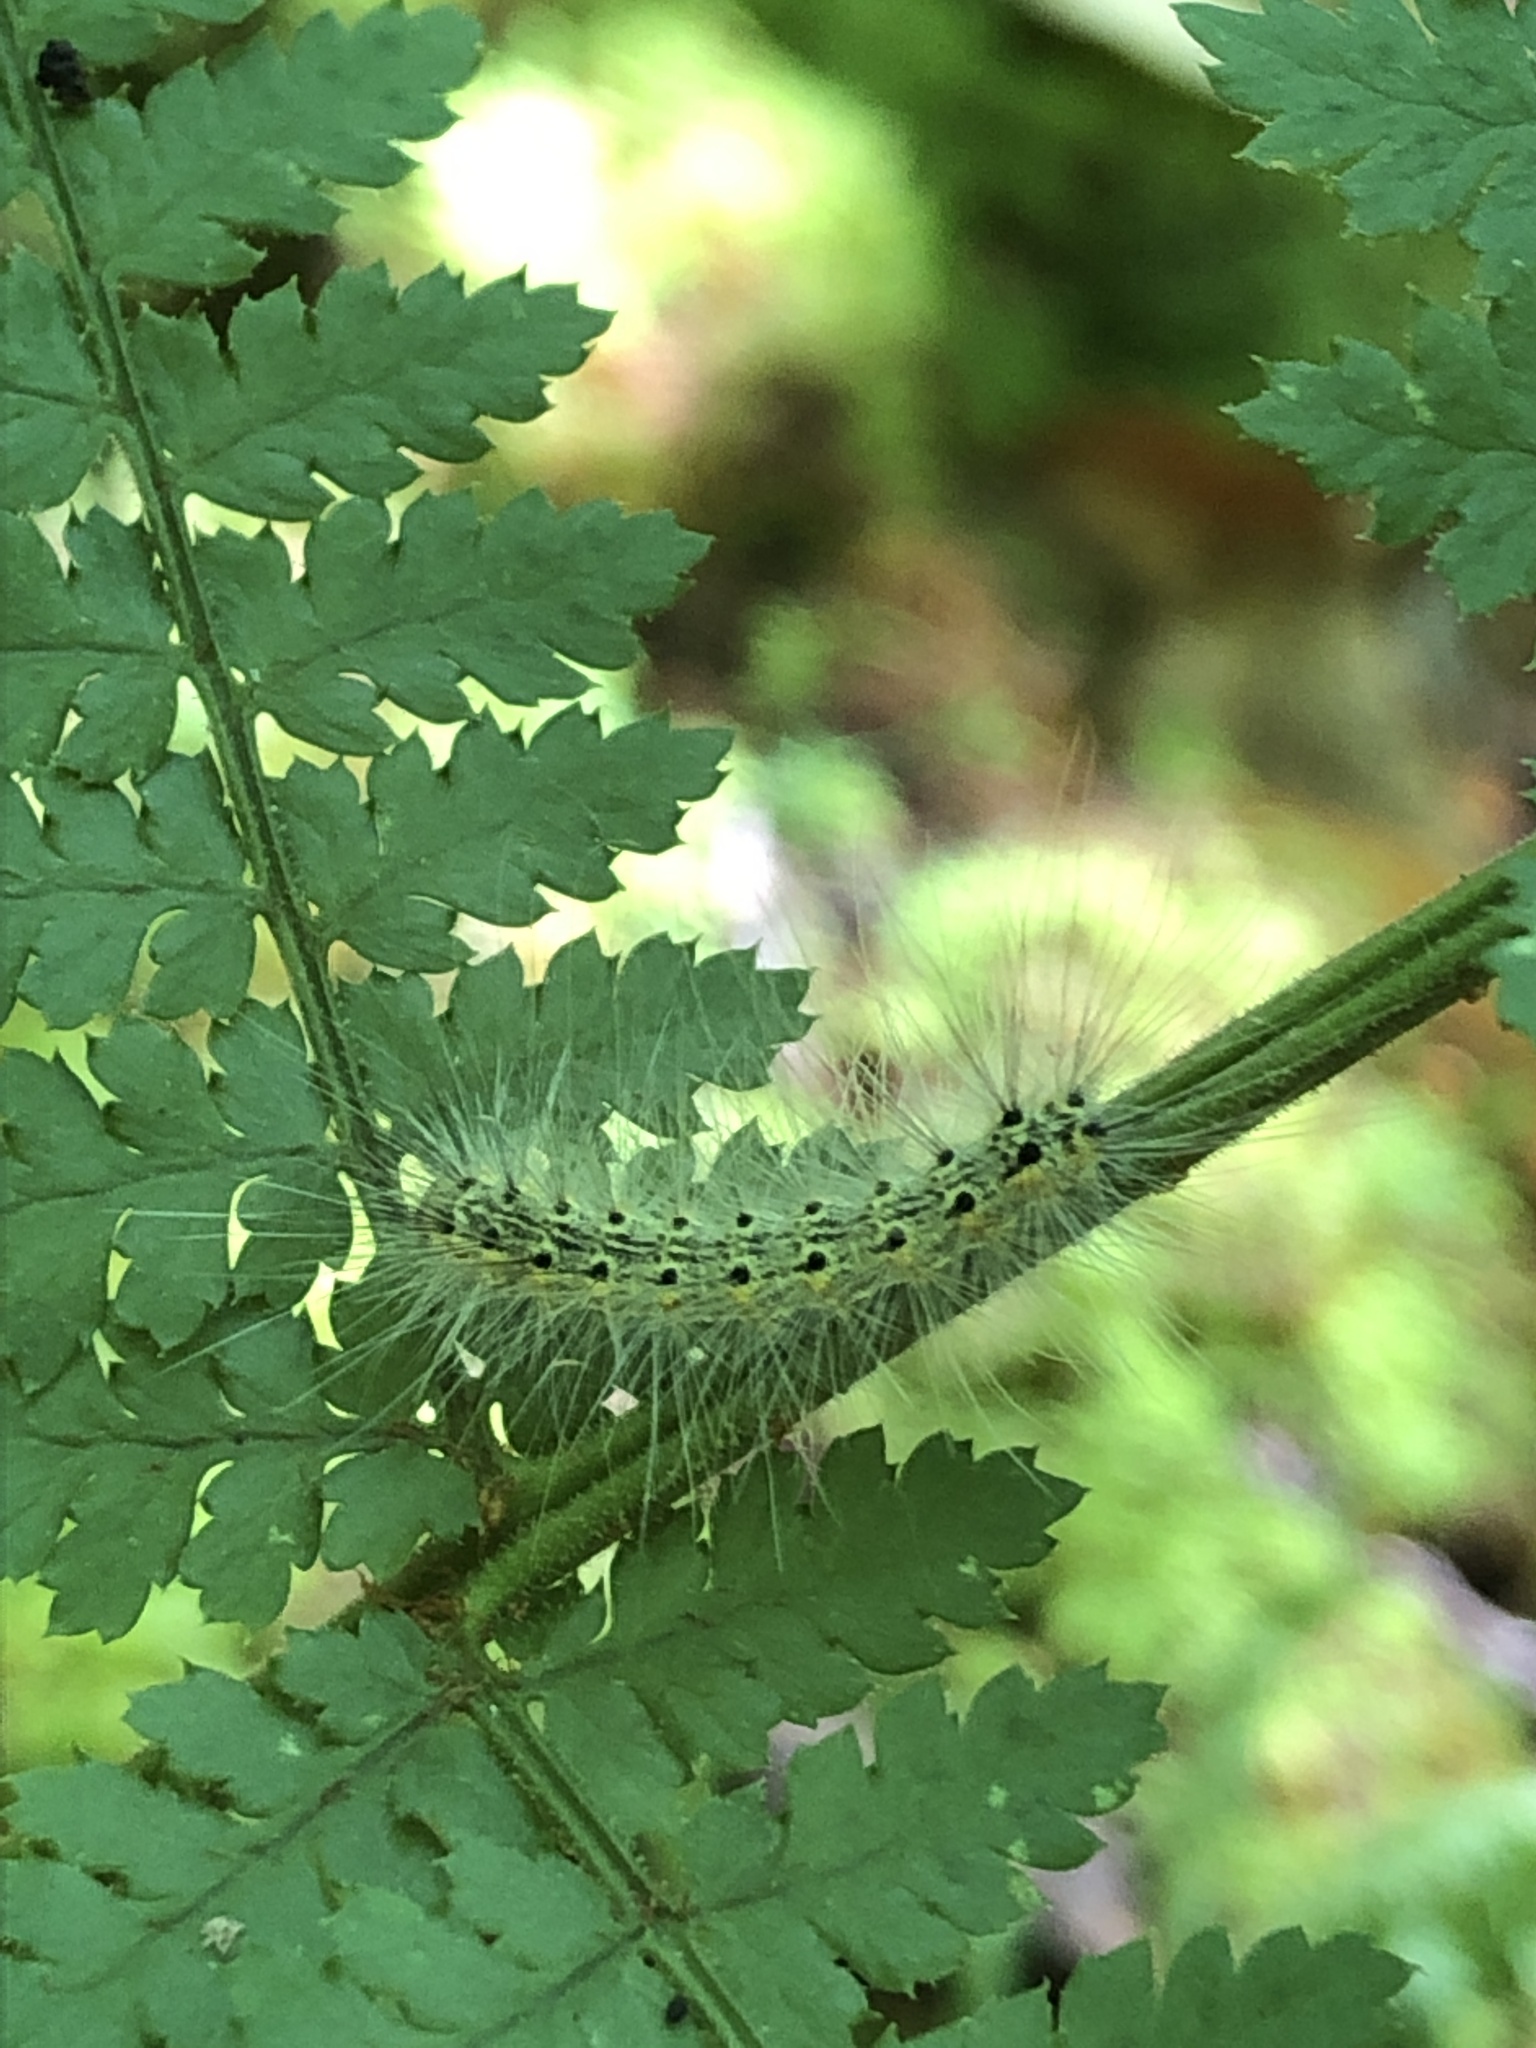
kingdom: Animalia
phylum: Arthropoda
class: Insecta
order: Lepidoptera
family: Erebidae
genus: Hyphantria
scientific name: Hyphantria cunea
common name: American white moth
